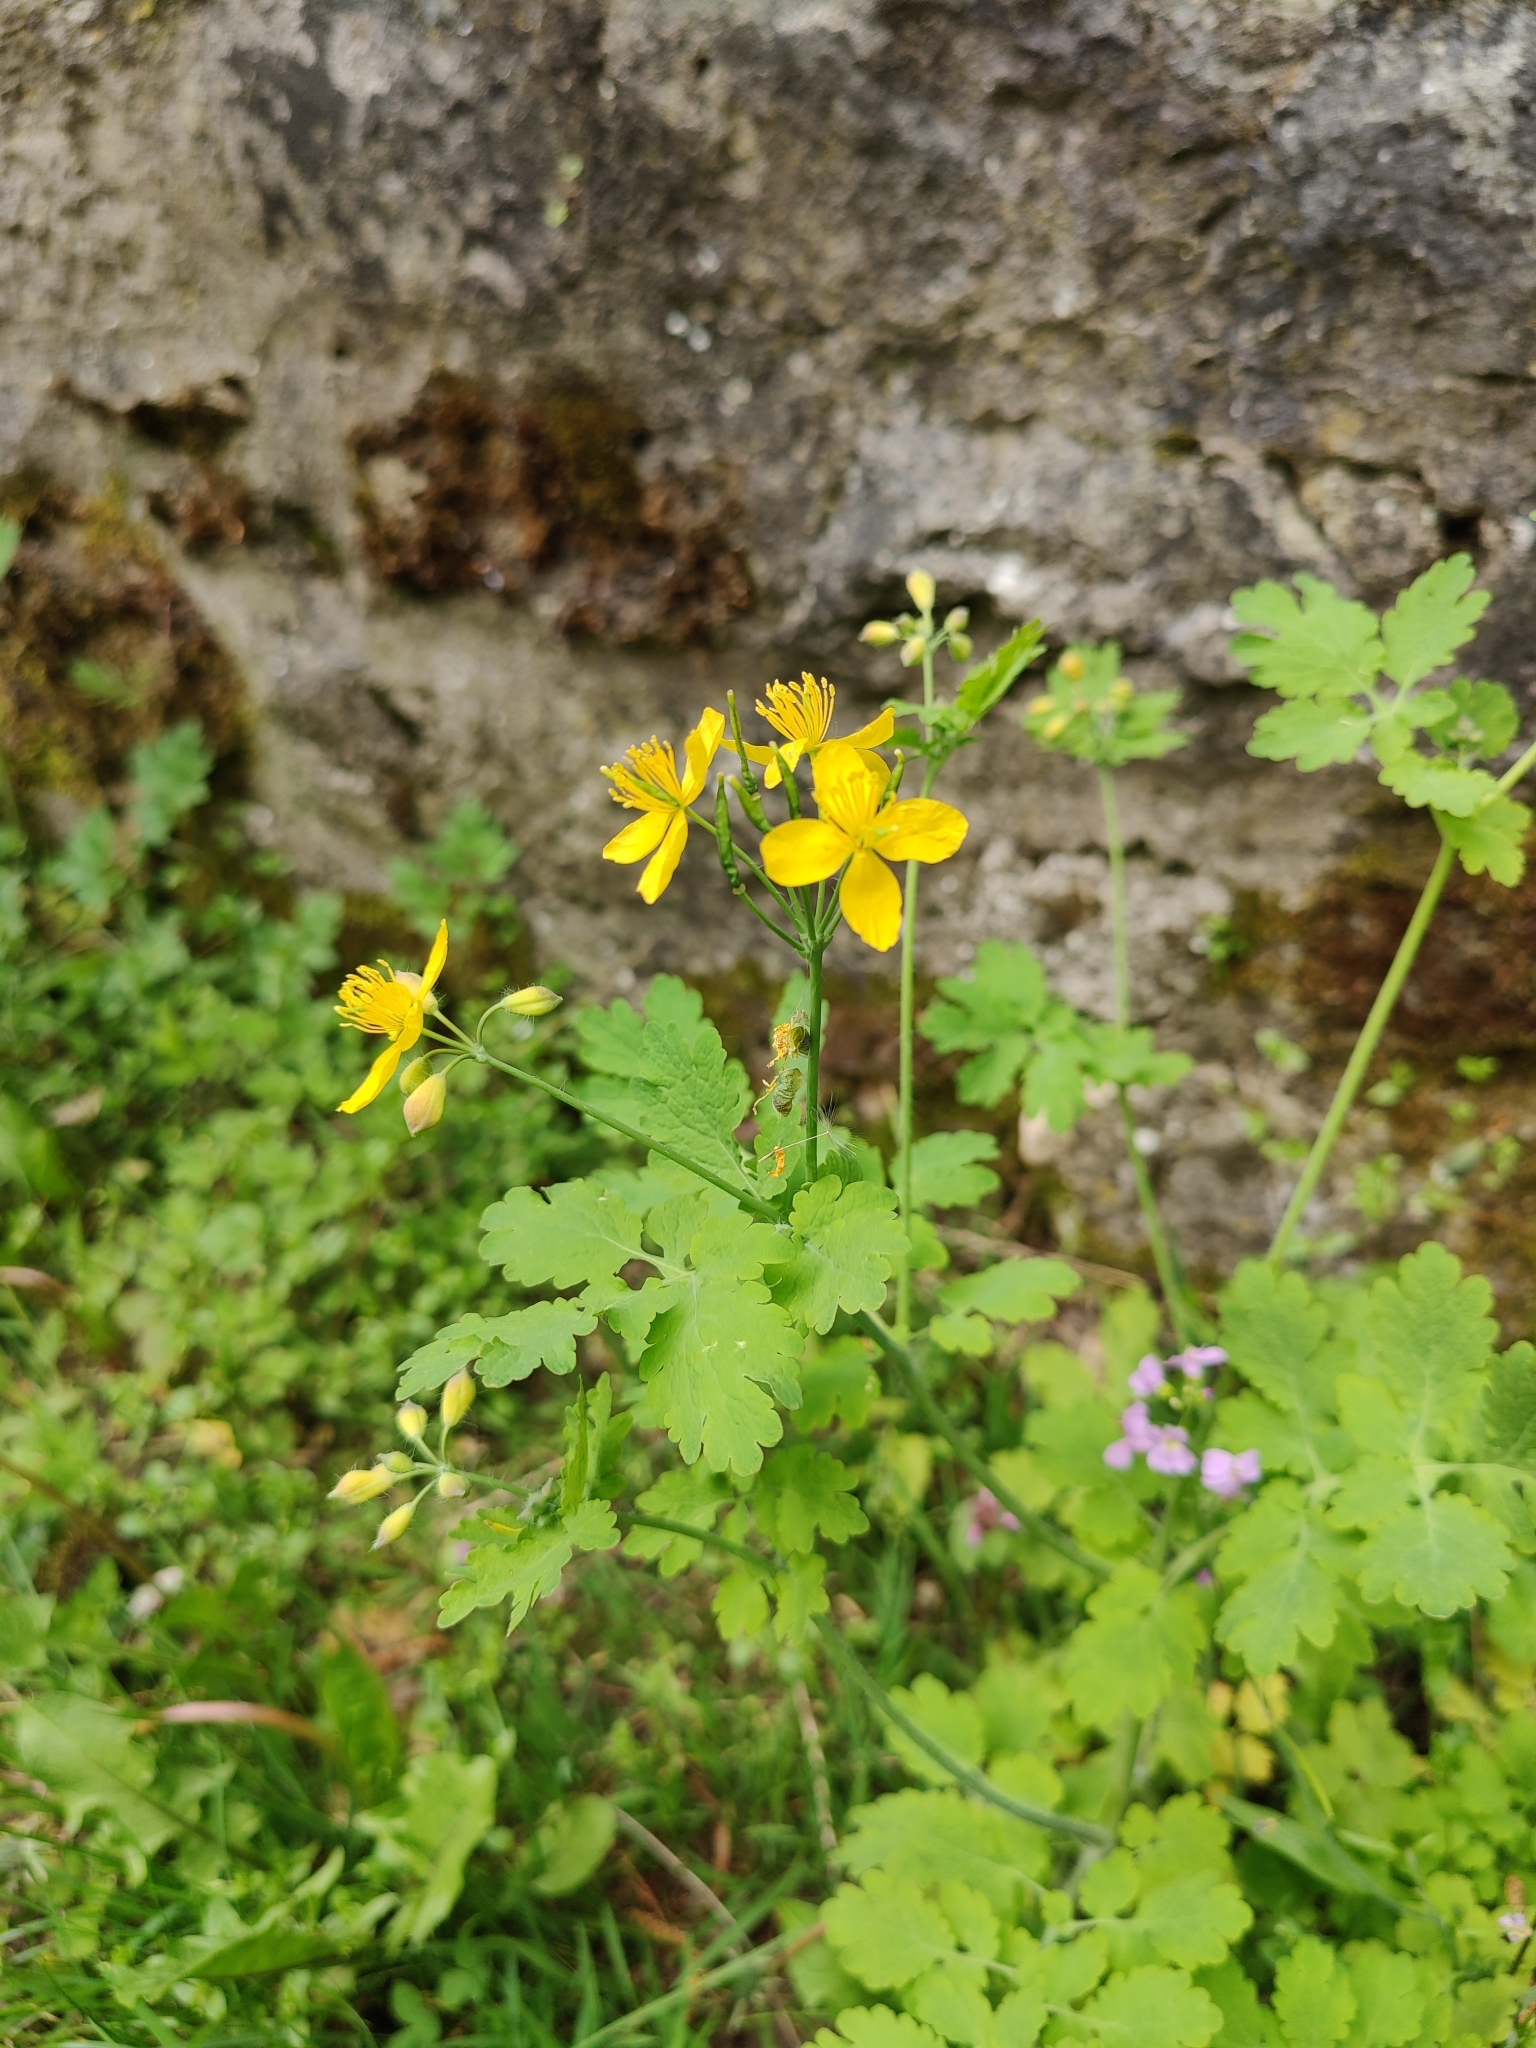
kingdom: Plantae
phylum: Tracheophyta
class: Magnoliopsida
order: Ranunculales
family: Papaveraceae
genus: Chelidonium
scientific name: Chelidonium majus
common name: Greater celandine
